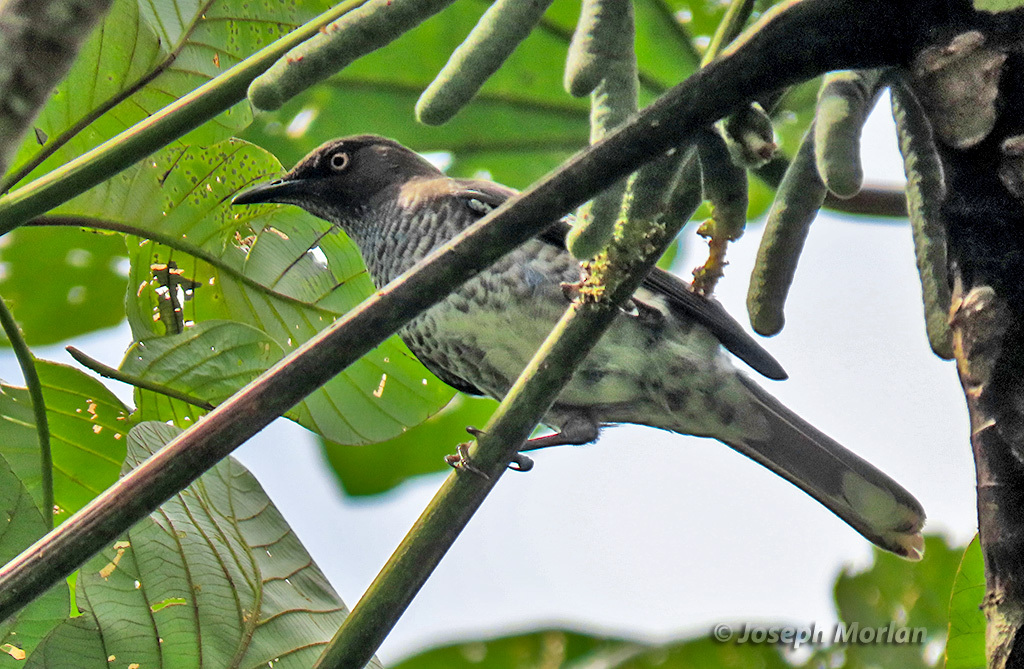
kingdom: Animalia
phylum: Chordata
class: Aves
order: Passeriformes
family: Mimidae
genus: Allenia
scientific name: Allenia fusca
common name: Scaly-breasted thrasher
